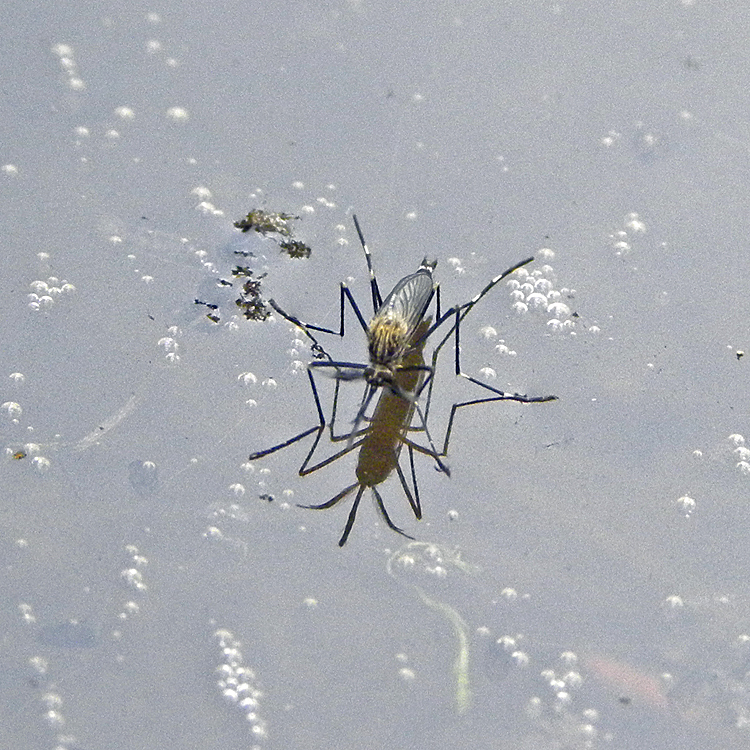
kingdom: Animalia
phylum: Arthropoda
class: Insecta
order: Diptera
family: Culicidae
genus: Aedes
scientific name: Aedes japonicus
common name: Asian bush mosquito
